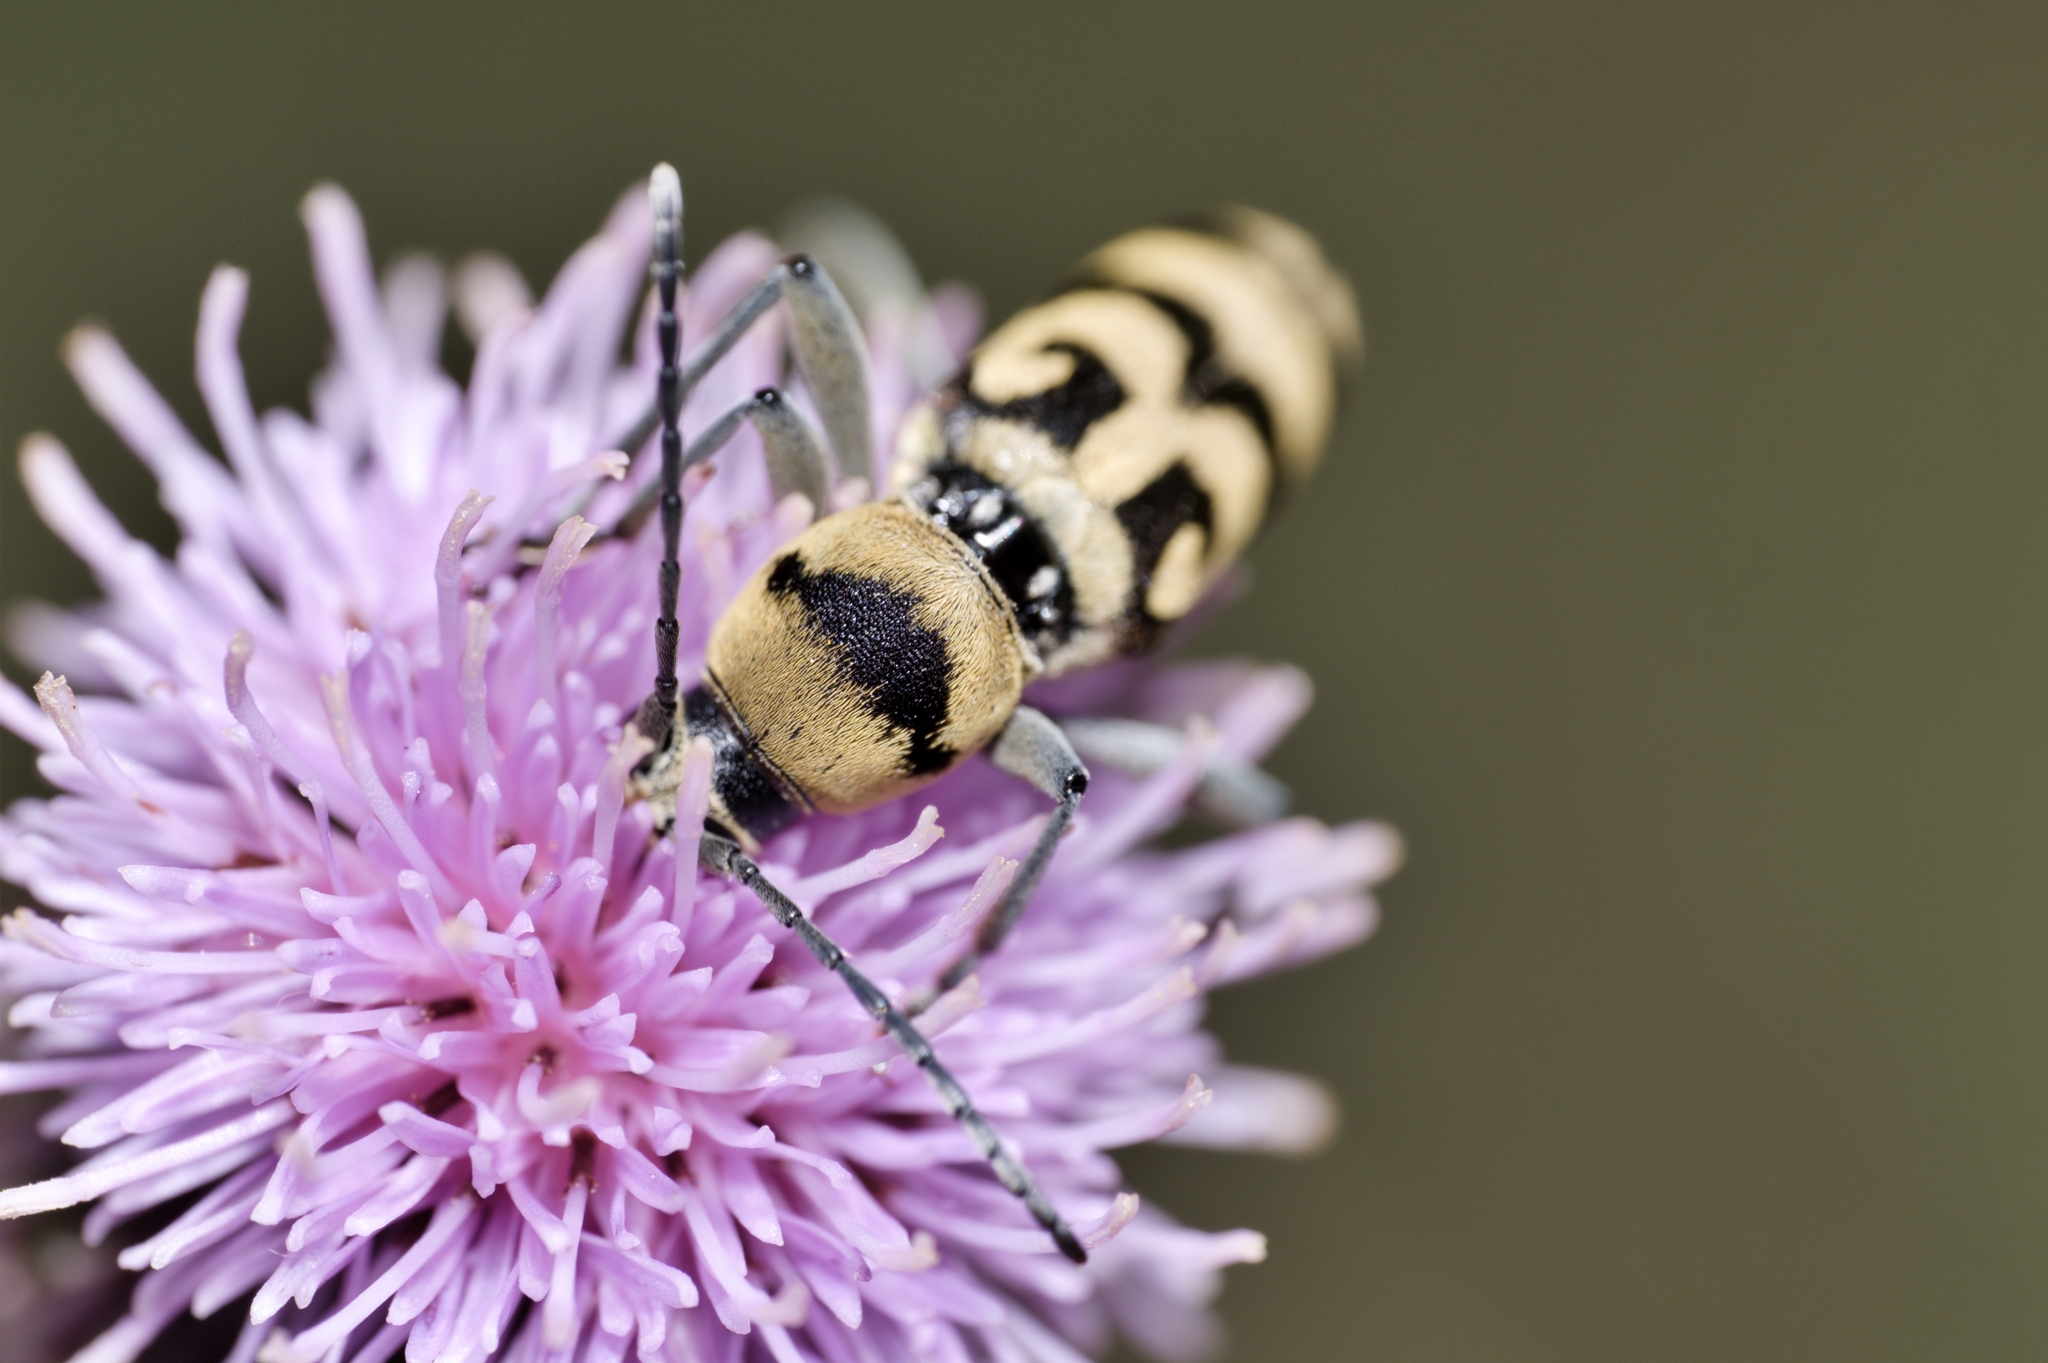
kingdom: Animalia
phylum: Arthropoda
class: Insecta
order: Coleoptera
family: Cerambycidae
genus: Chlorophorus
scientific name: Chlorophorus varius
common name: Grape wood borer
